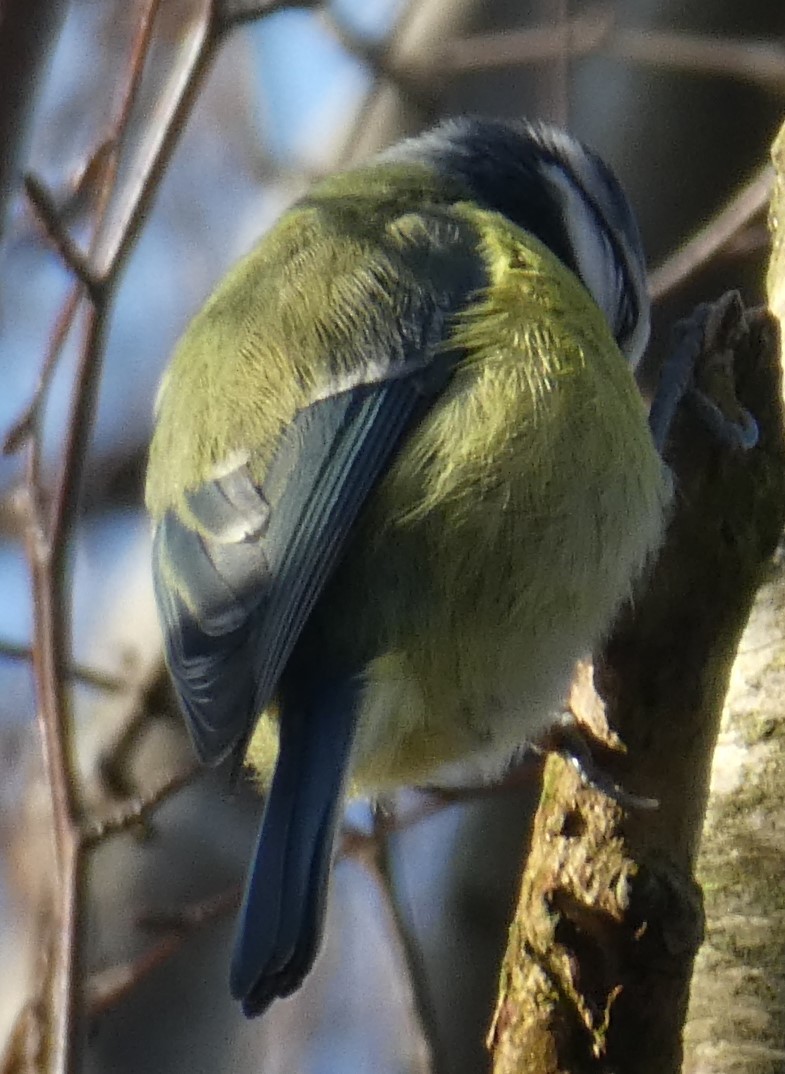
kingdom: Animalia
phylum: Chordata
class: Aves
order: Passeriformes
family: Paridae
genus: Cyanistes
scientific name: Cyanistes caeruleus
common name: Eurasian blue tit
